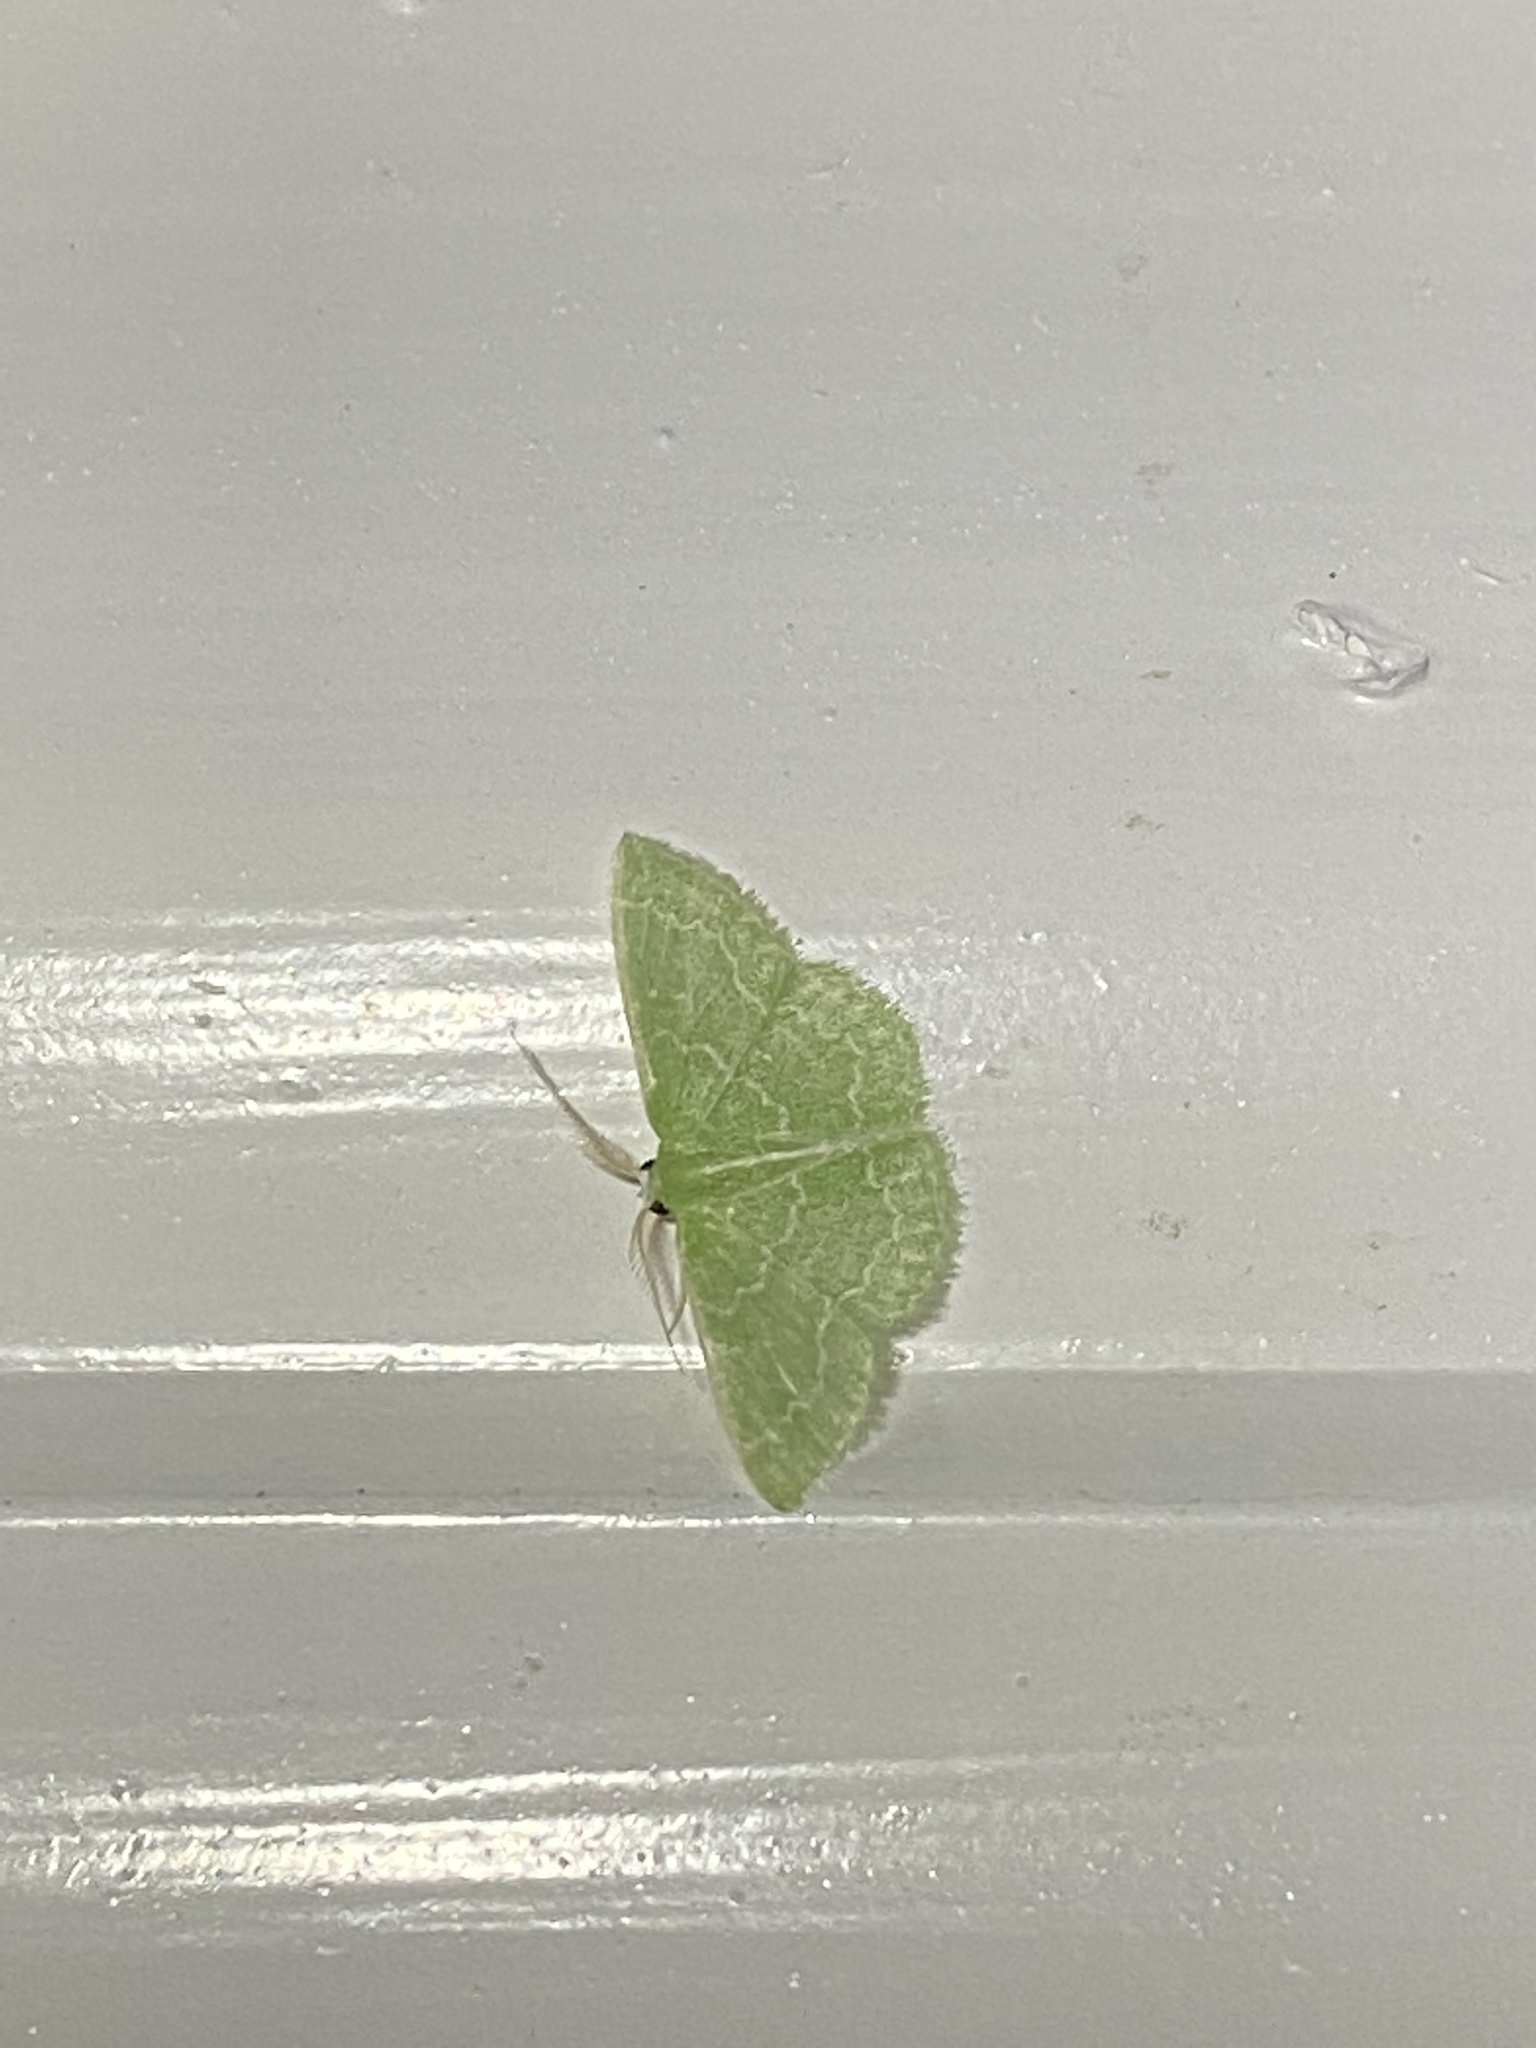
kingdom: Animalia
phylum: Arthropoda
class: Insecta
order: Lepidoptera
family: Geometridae
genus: Synchlora
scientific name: Synchlora frondaria
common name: Southern emerald
